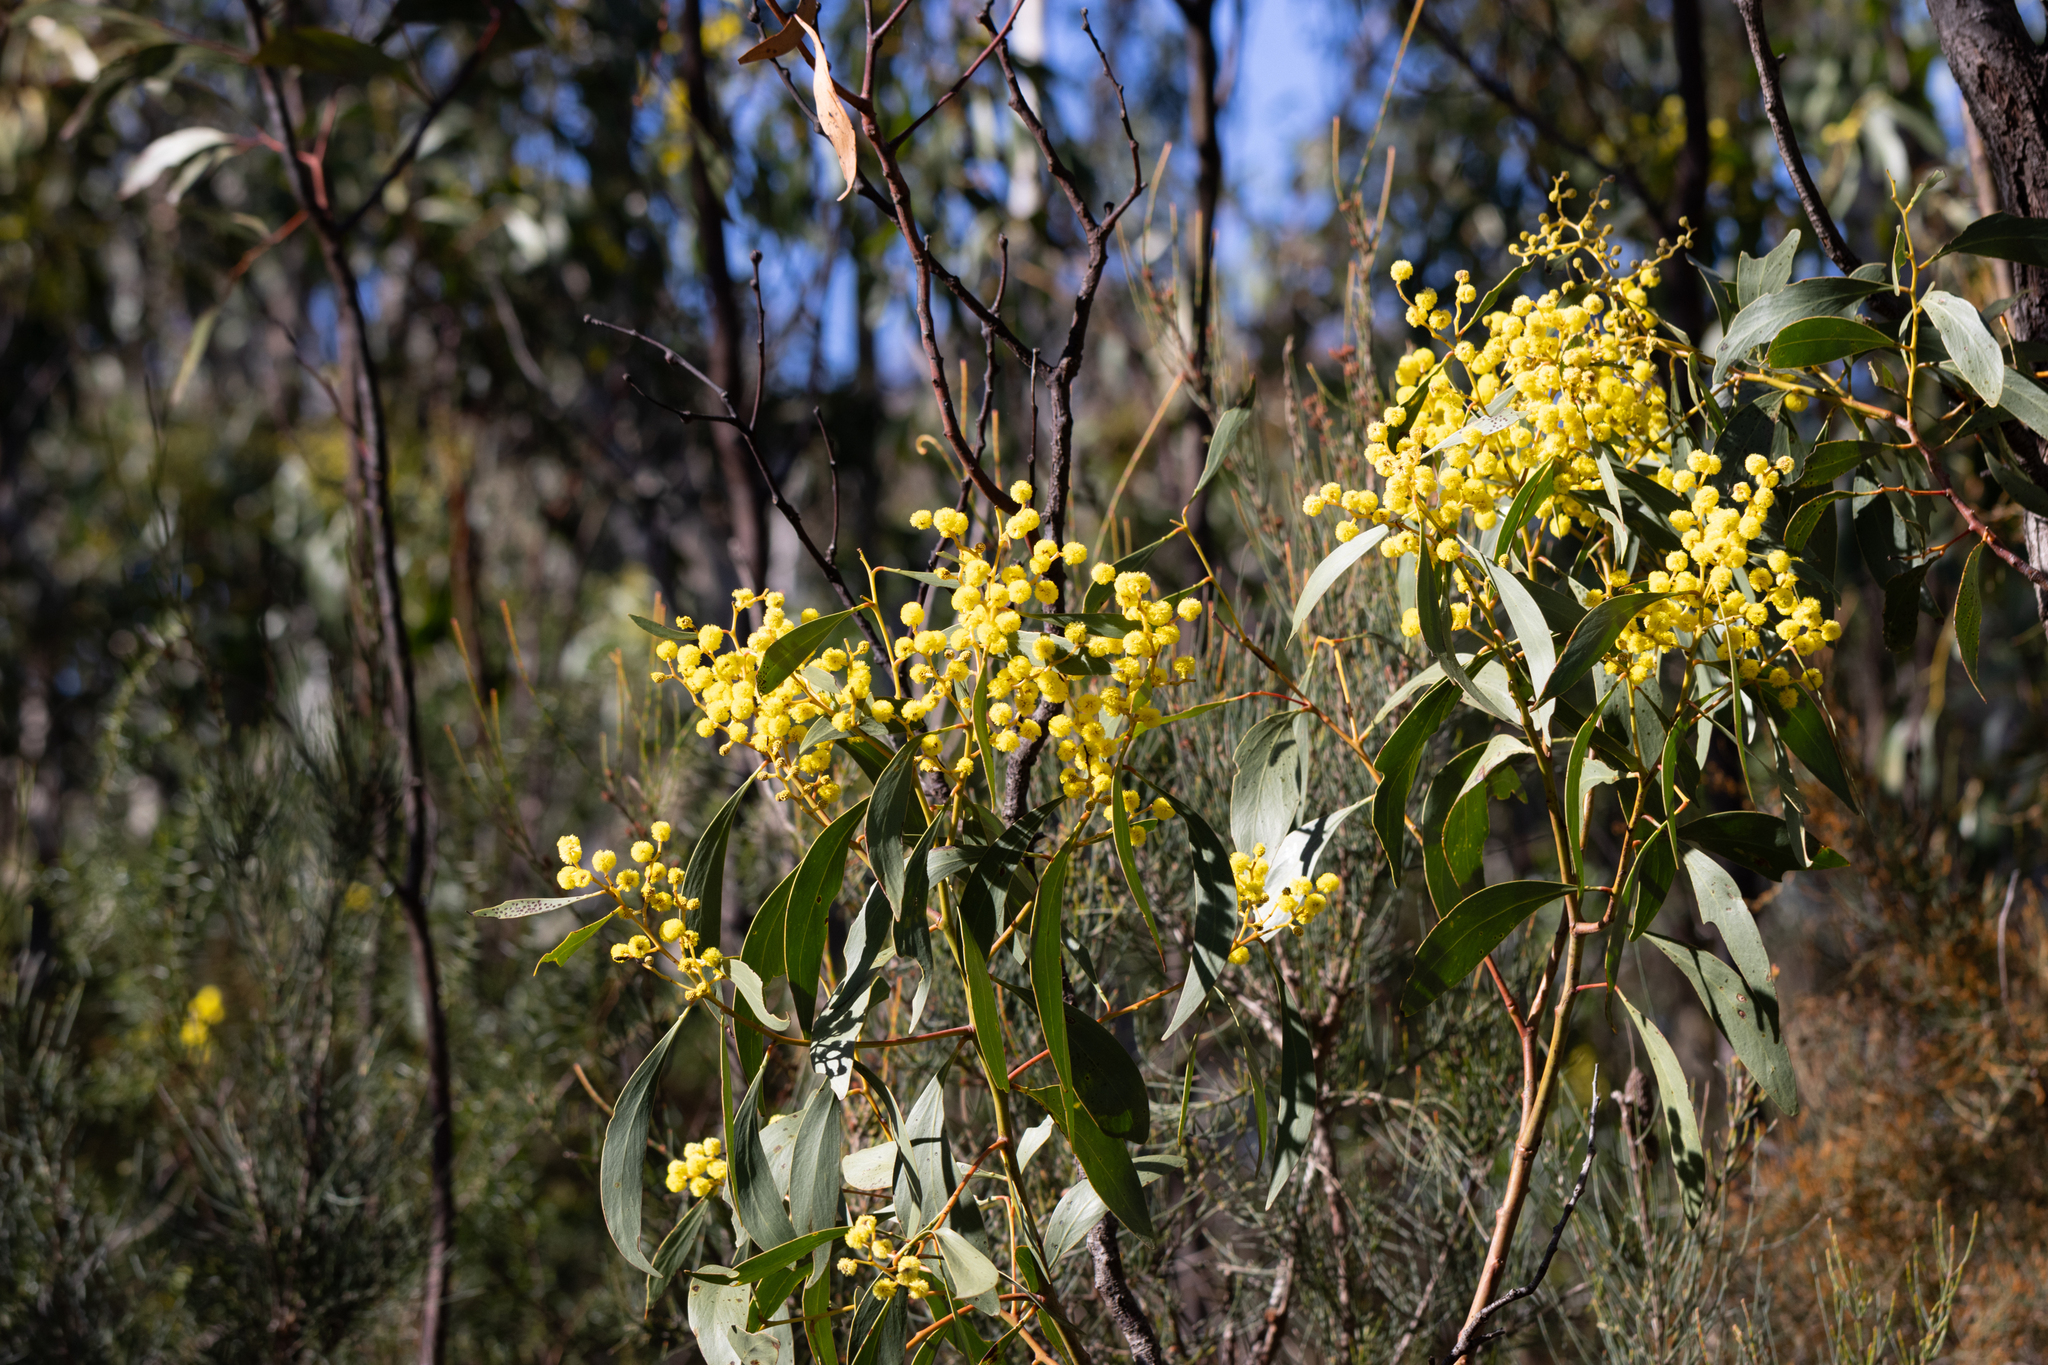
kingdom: Plantae
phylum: Tracheophyta
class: Magnoliopsida
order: Fabales
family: Fabaceae
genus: Acacia
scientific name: Acacia pycnantha
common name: Golden wattle
